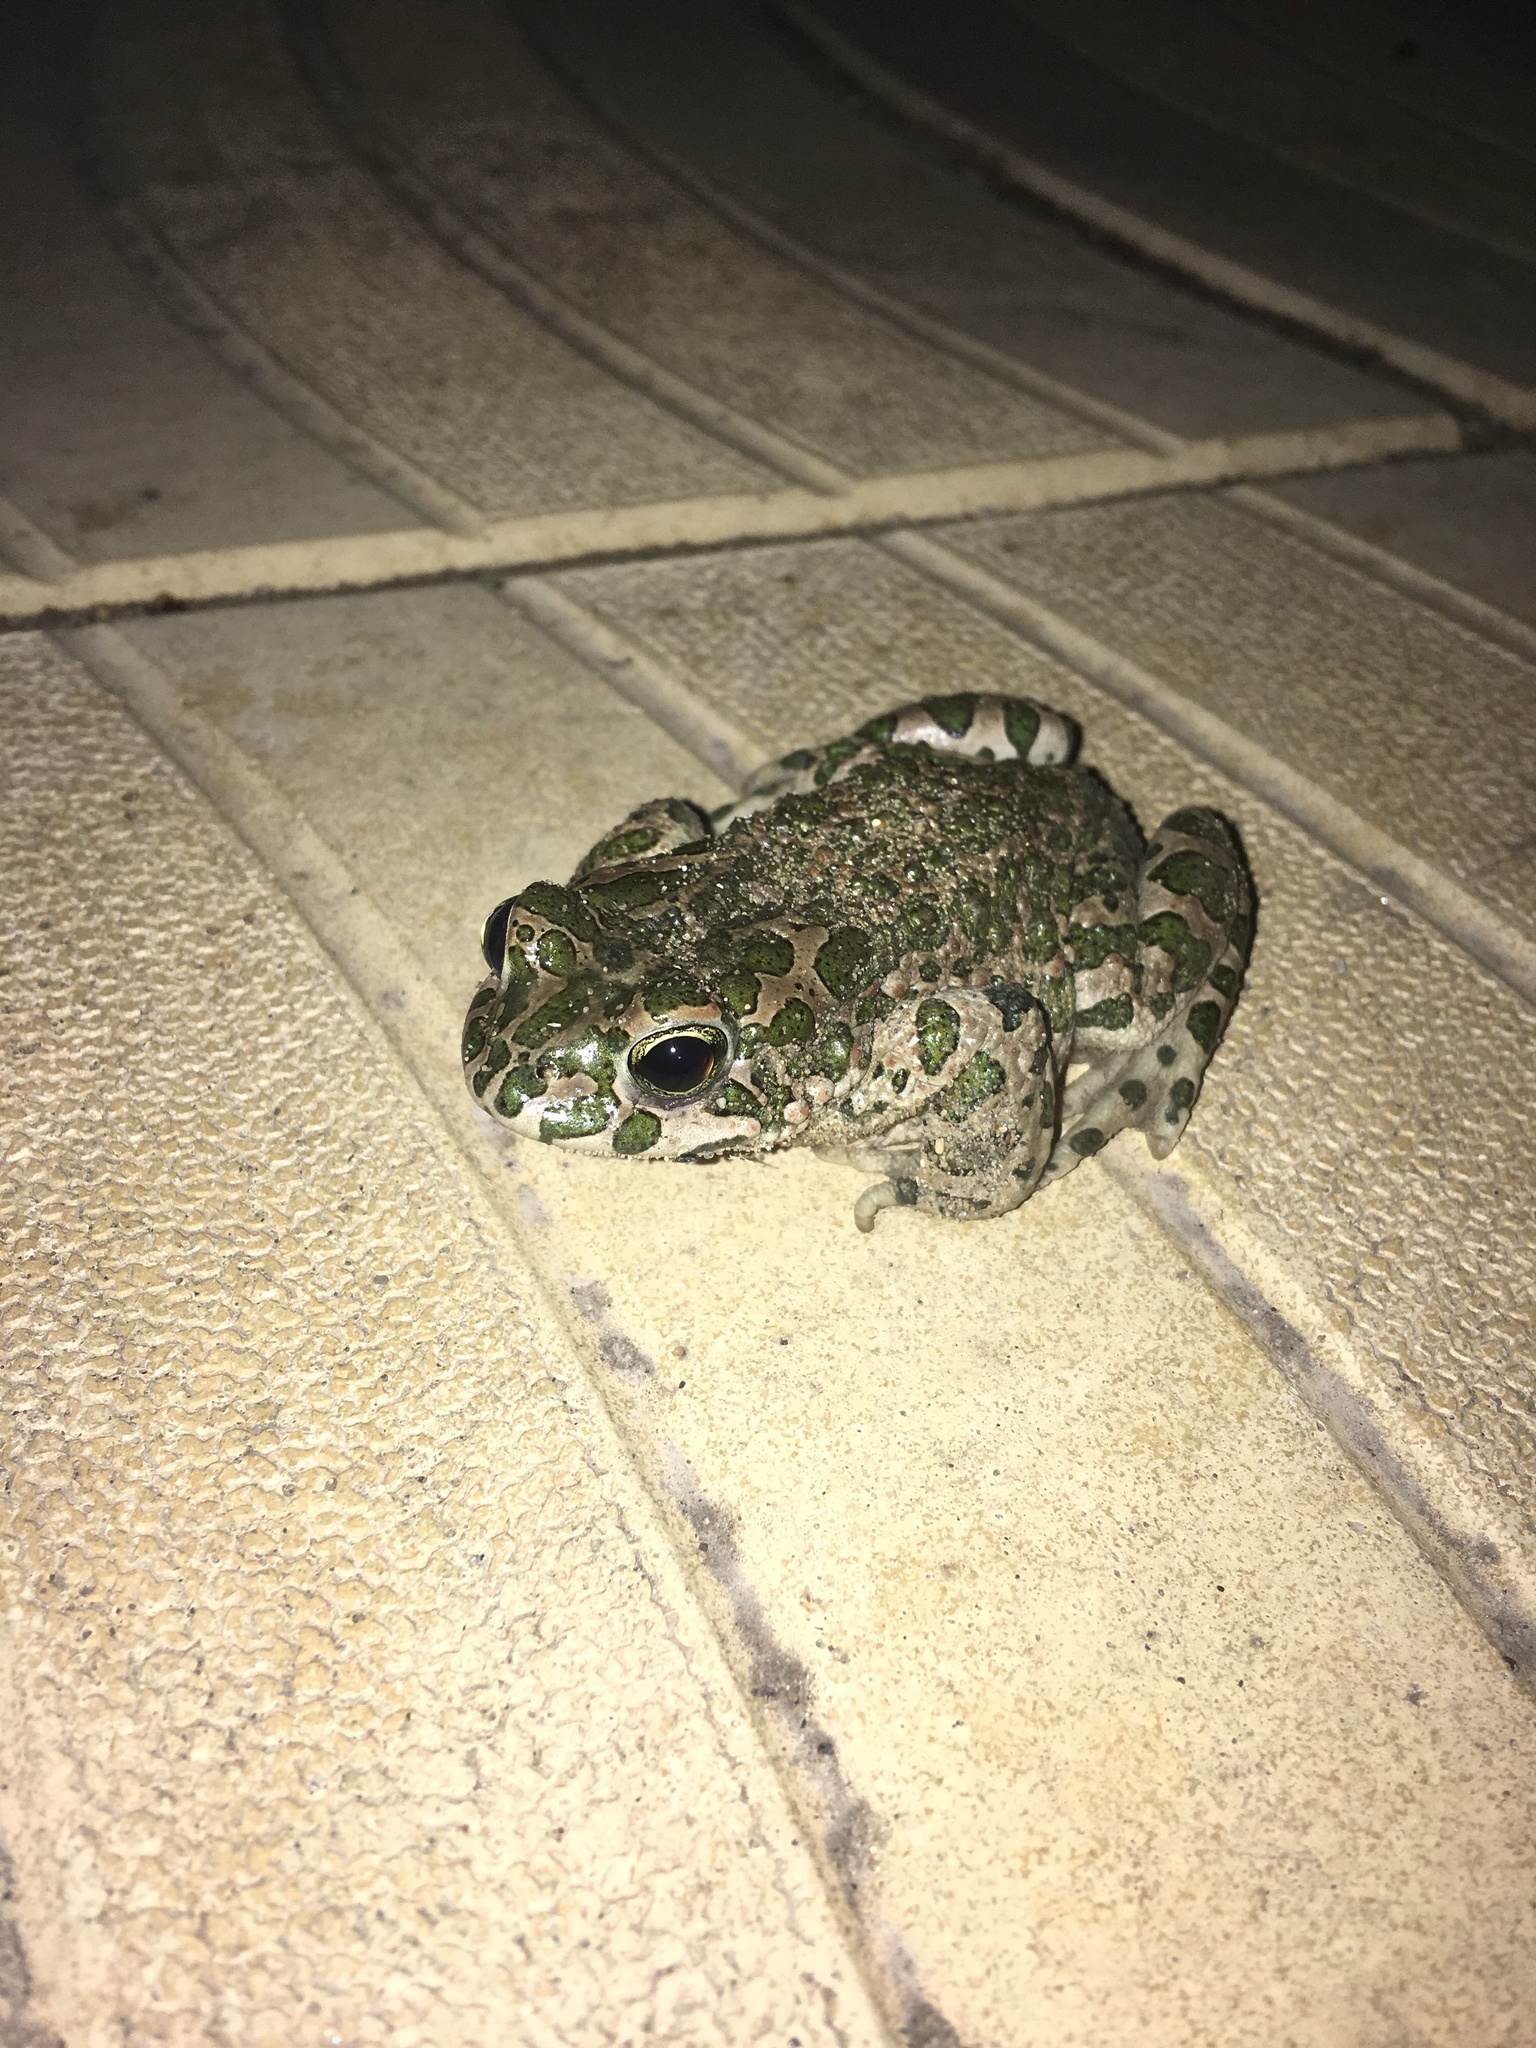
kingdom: Animalia
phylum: Chordata
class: Amphibia
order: Anura
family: Bufonidae
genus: Bufotes
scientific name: Bufotes viridis
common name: European green toad
